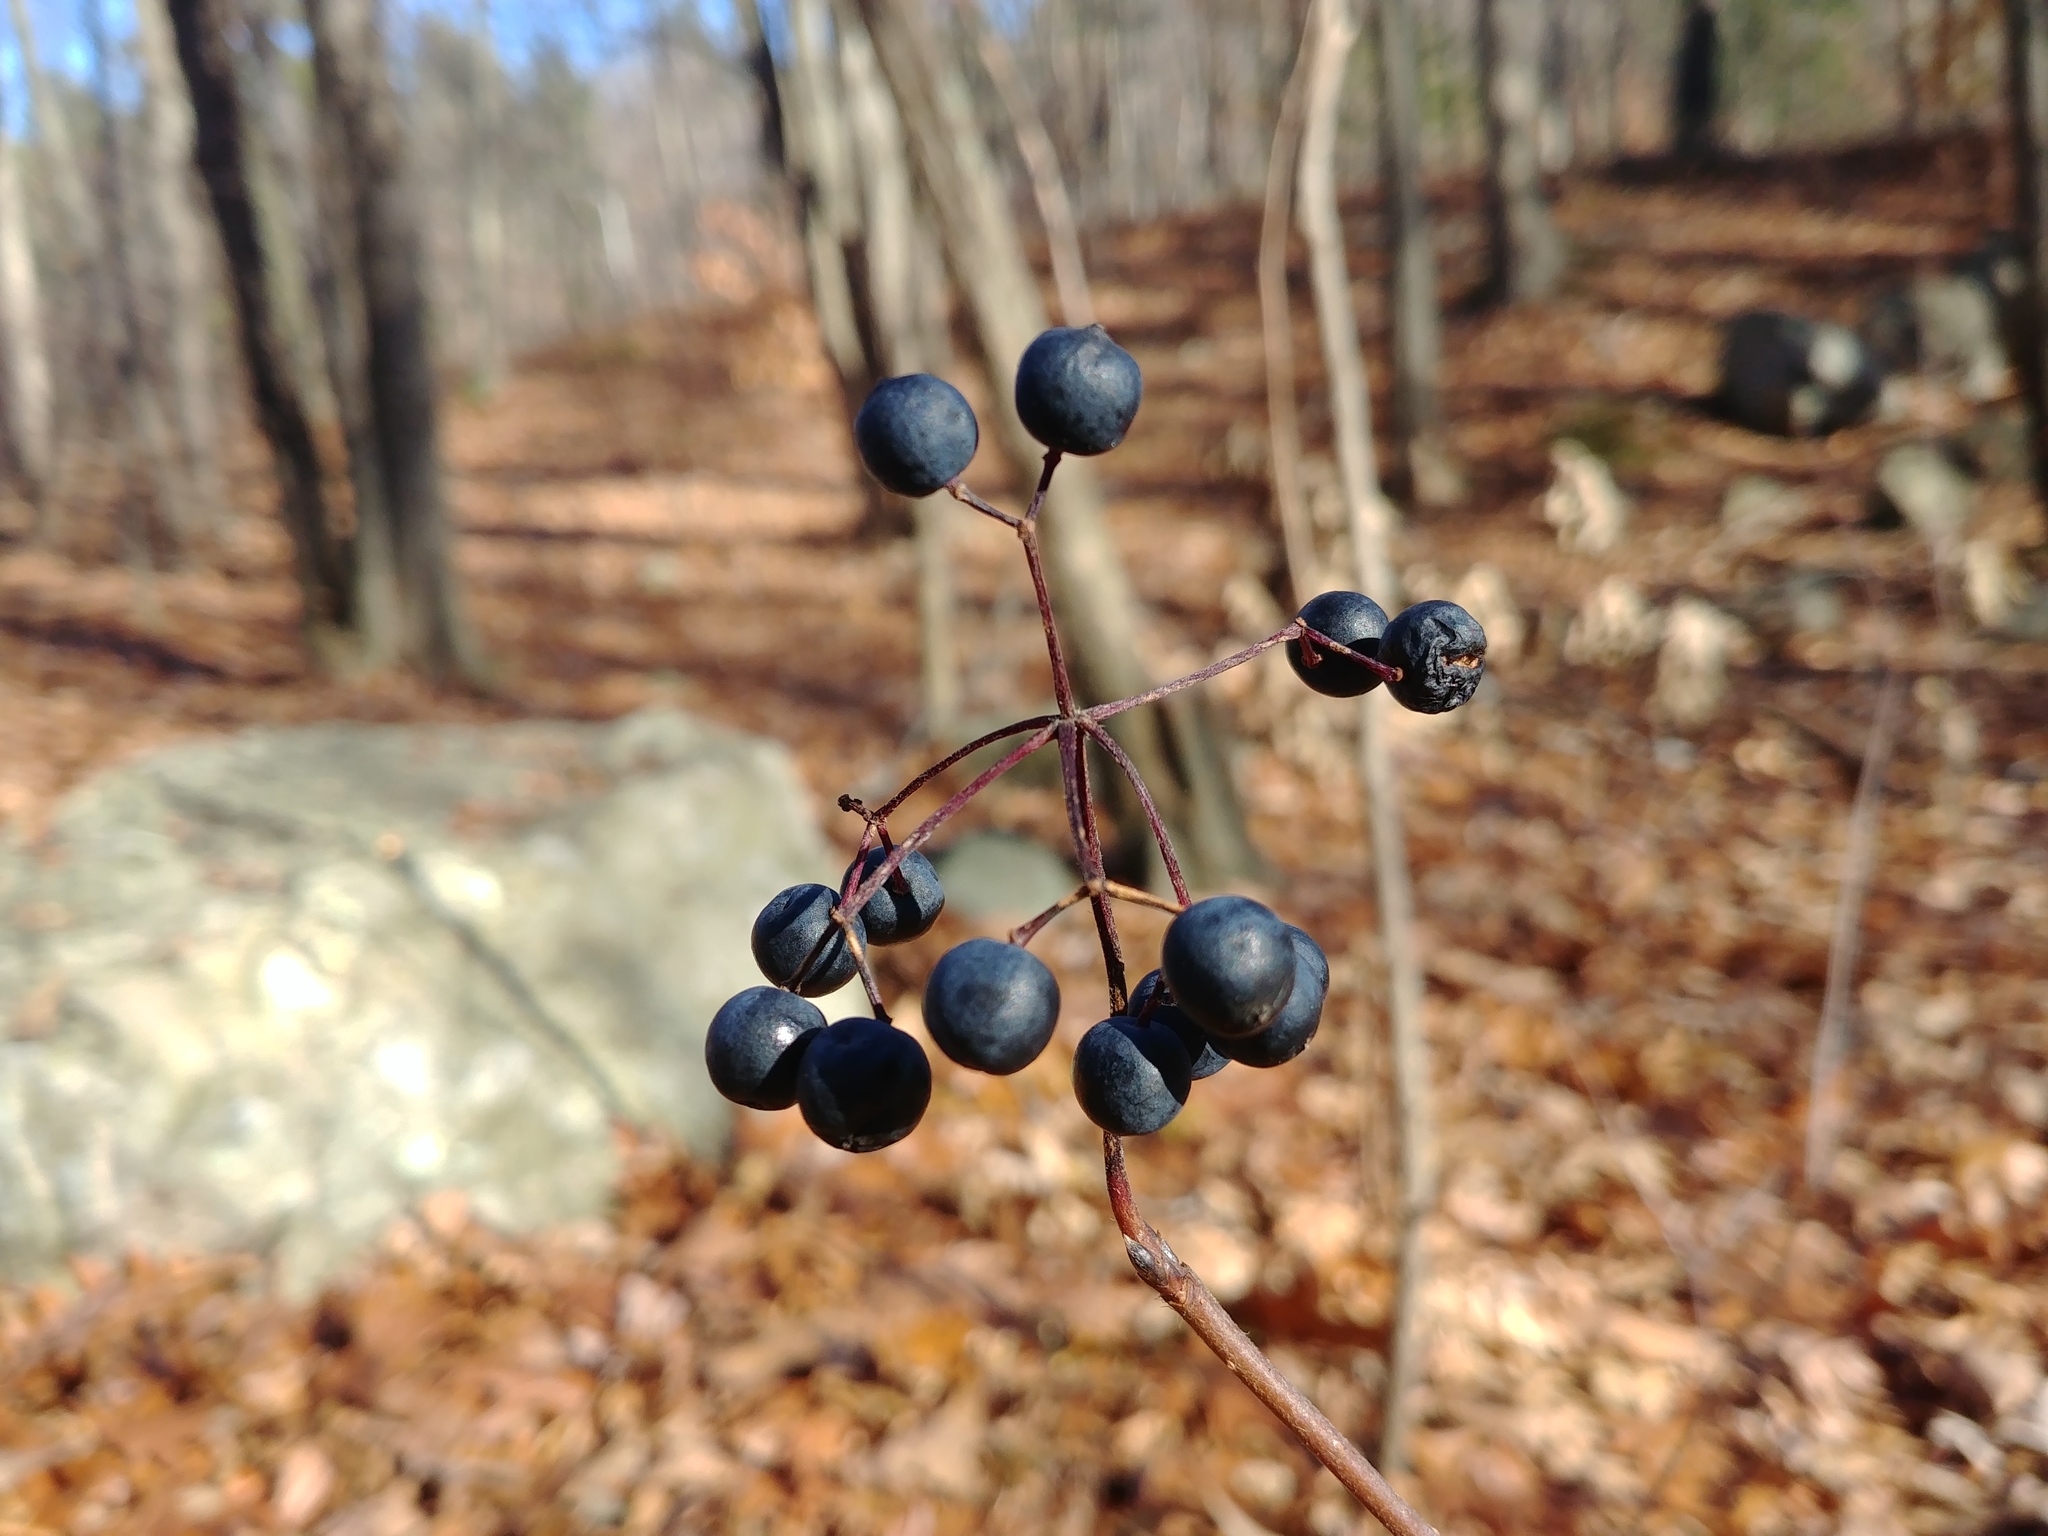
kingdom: Plantae
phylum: Tracheophyta
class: Magnoliopsida
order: Dipsacales
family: Viburnaceae
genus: Viburnum
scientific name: Viburnum acerifolium
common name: Dockmackie
